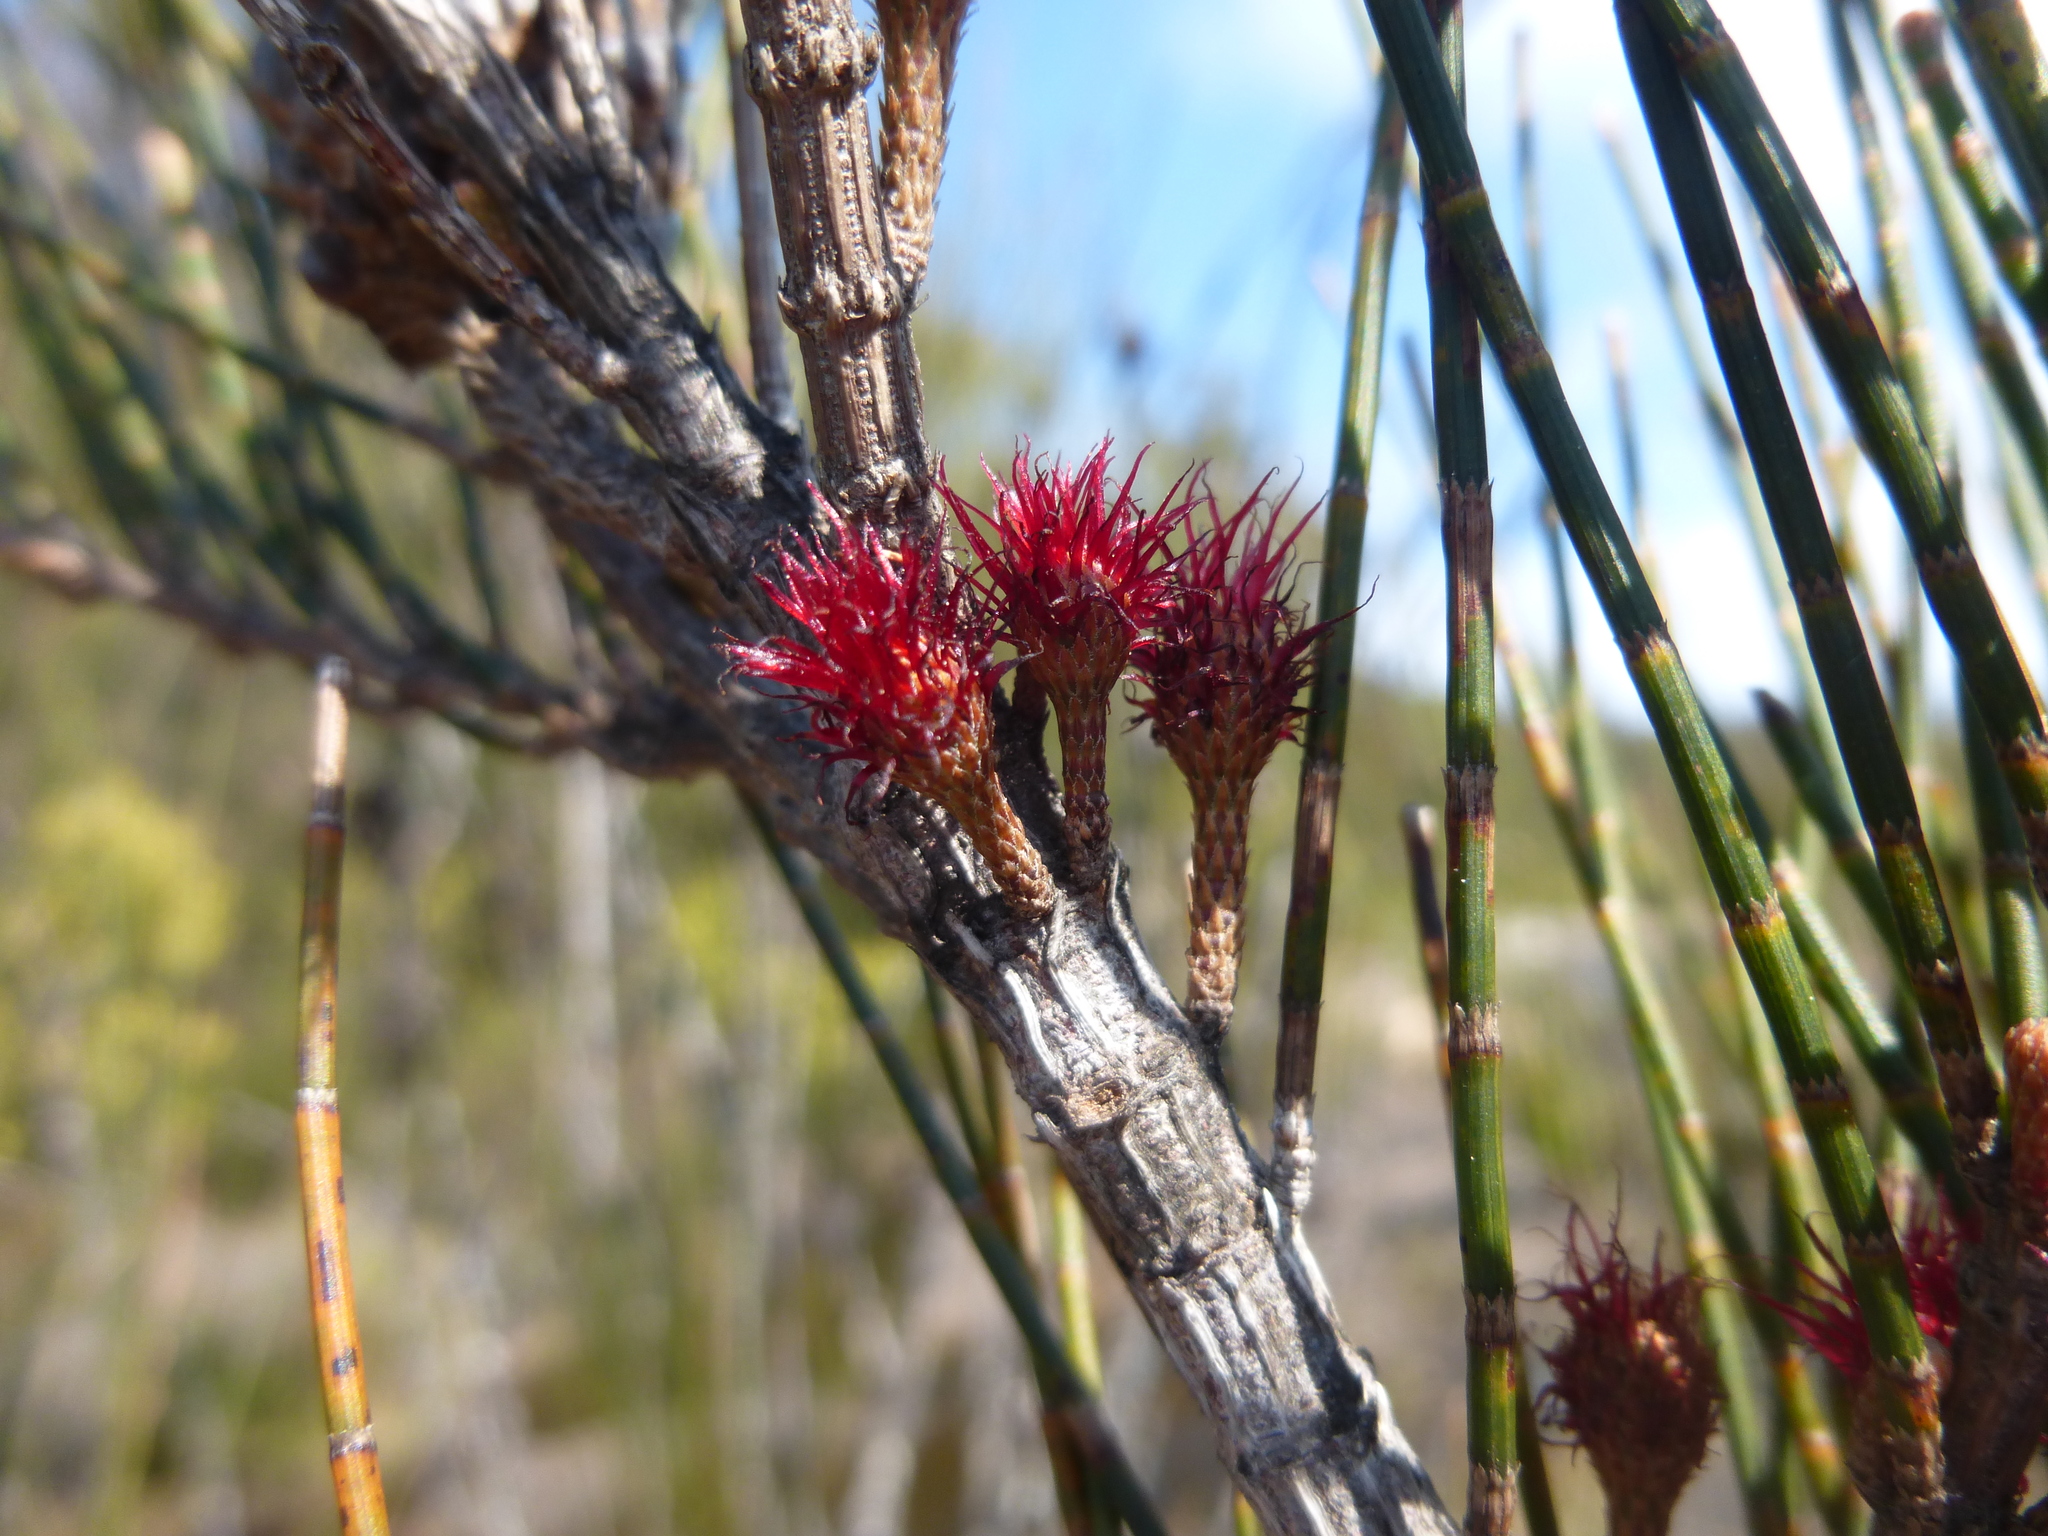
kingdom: Plantae
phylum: Tracheophyta
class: Magnoliopsida
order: Fagales
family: Casuarinaceae
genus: Allocasuarina
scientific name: Allocasuarina paludosa
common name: Scrub she-oak
